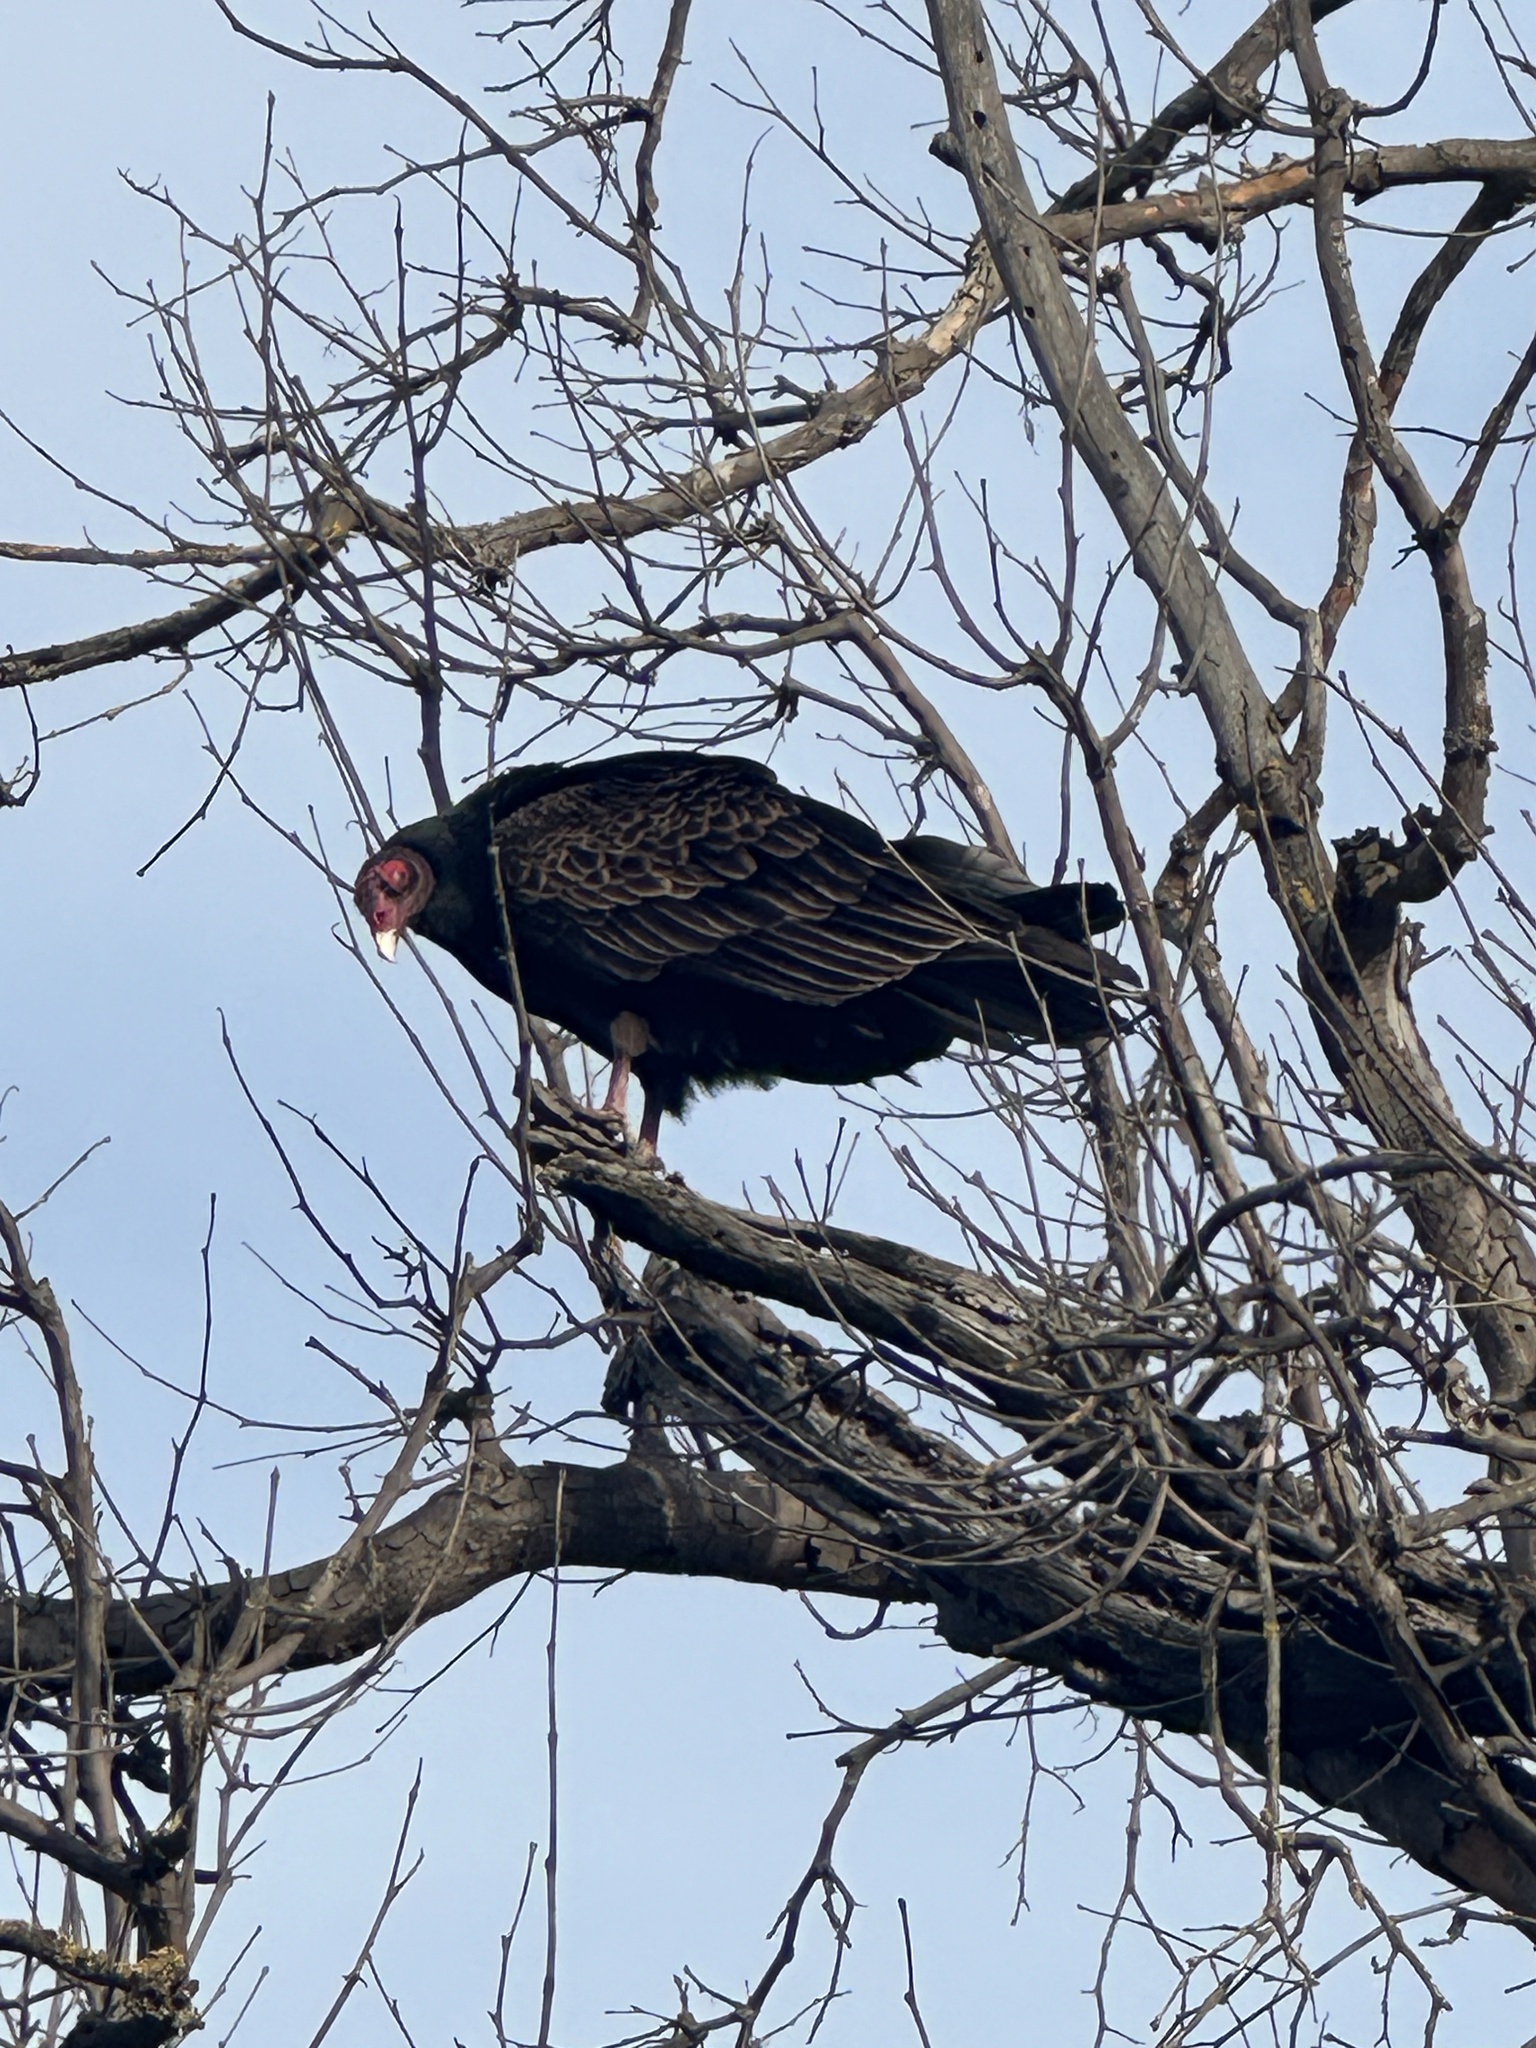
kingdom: Animalia
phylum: Chordata
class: Aves
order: Accipitriformes
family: Cathartidae
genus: Cathartes
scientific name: Cathartes aura
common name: Turkey vulture
